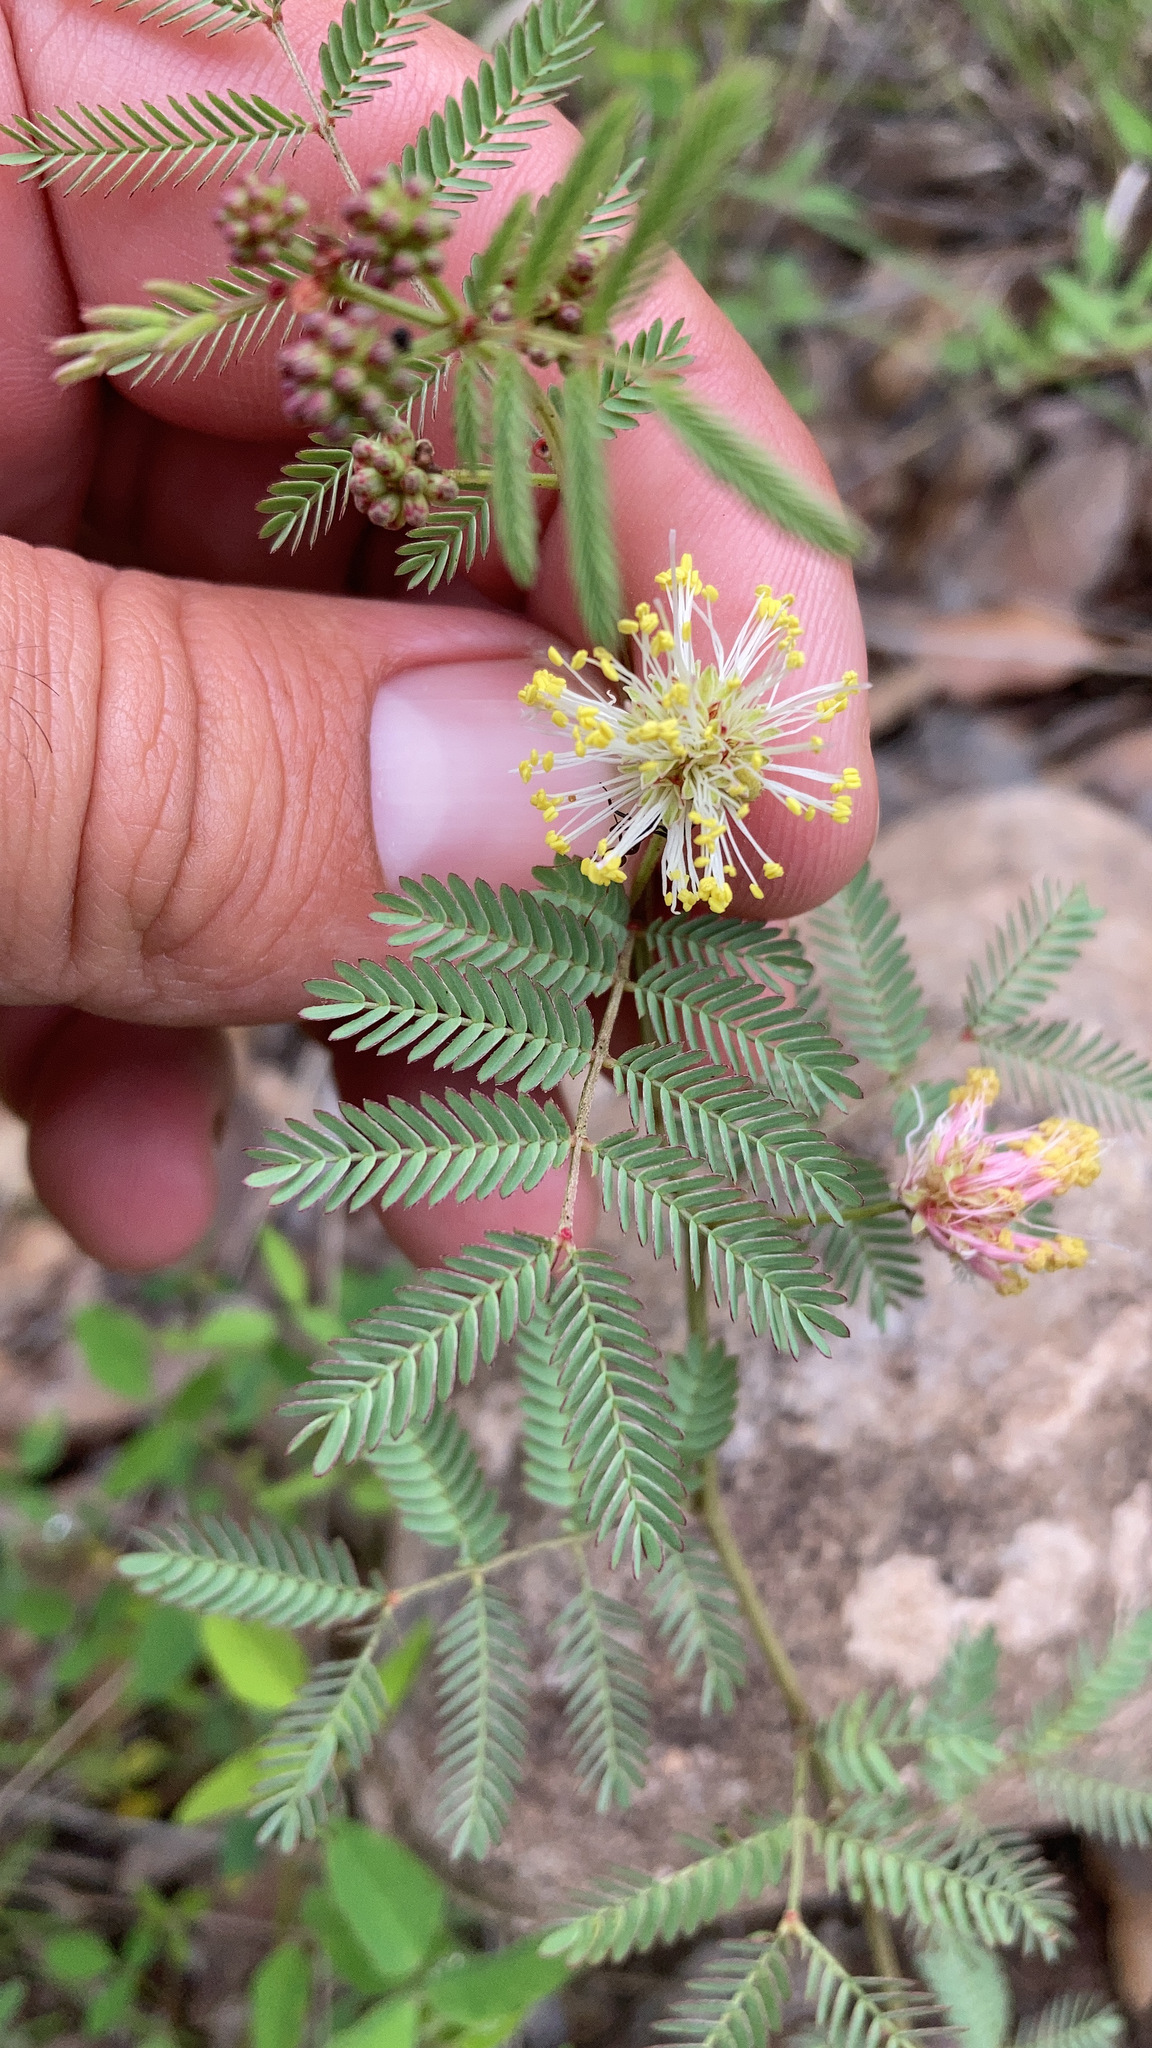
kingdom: Plantae
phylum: Tracheophyta
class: Magnoliopsida
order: Fabales
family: Fabaceae
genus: Desmanthus
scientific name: Desmanthus cooleyi
